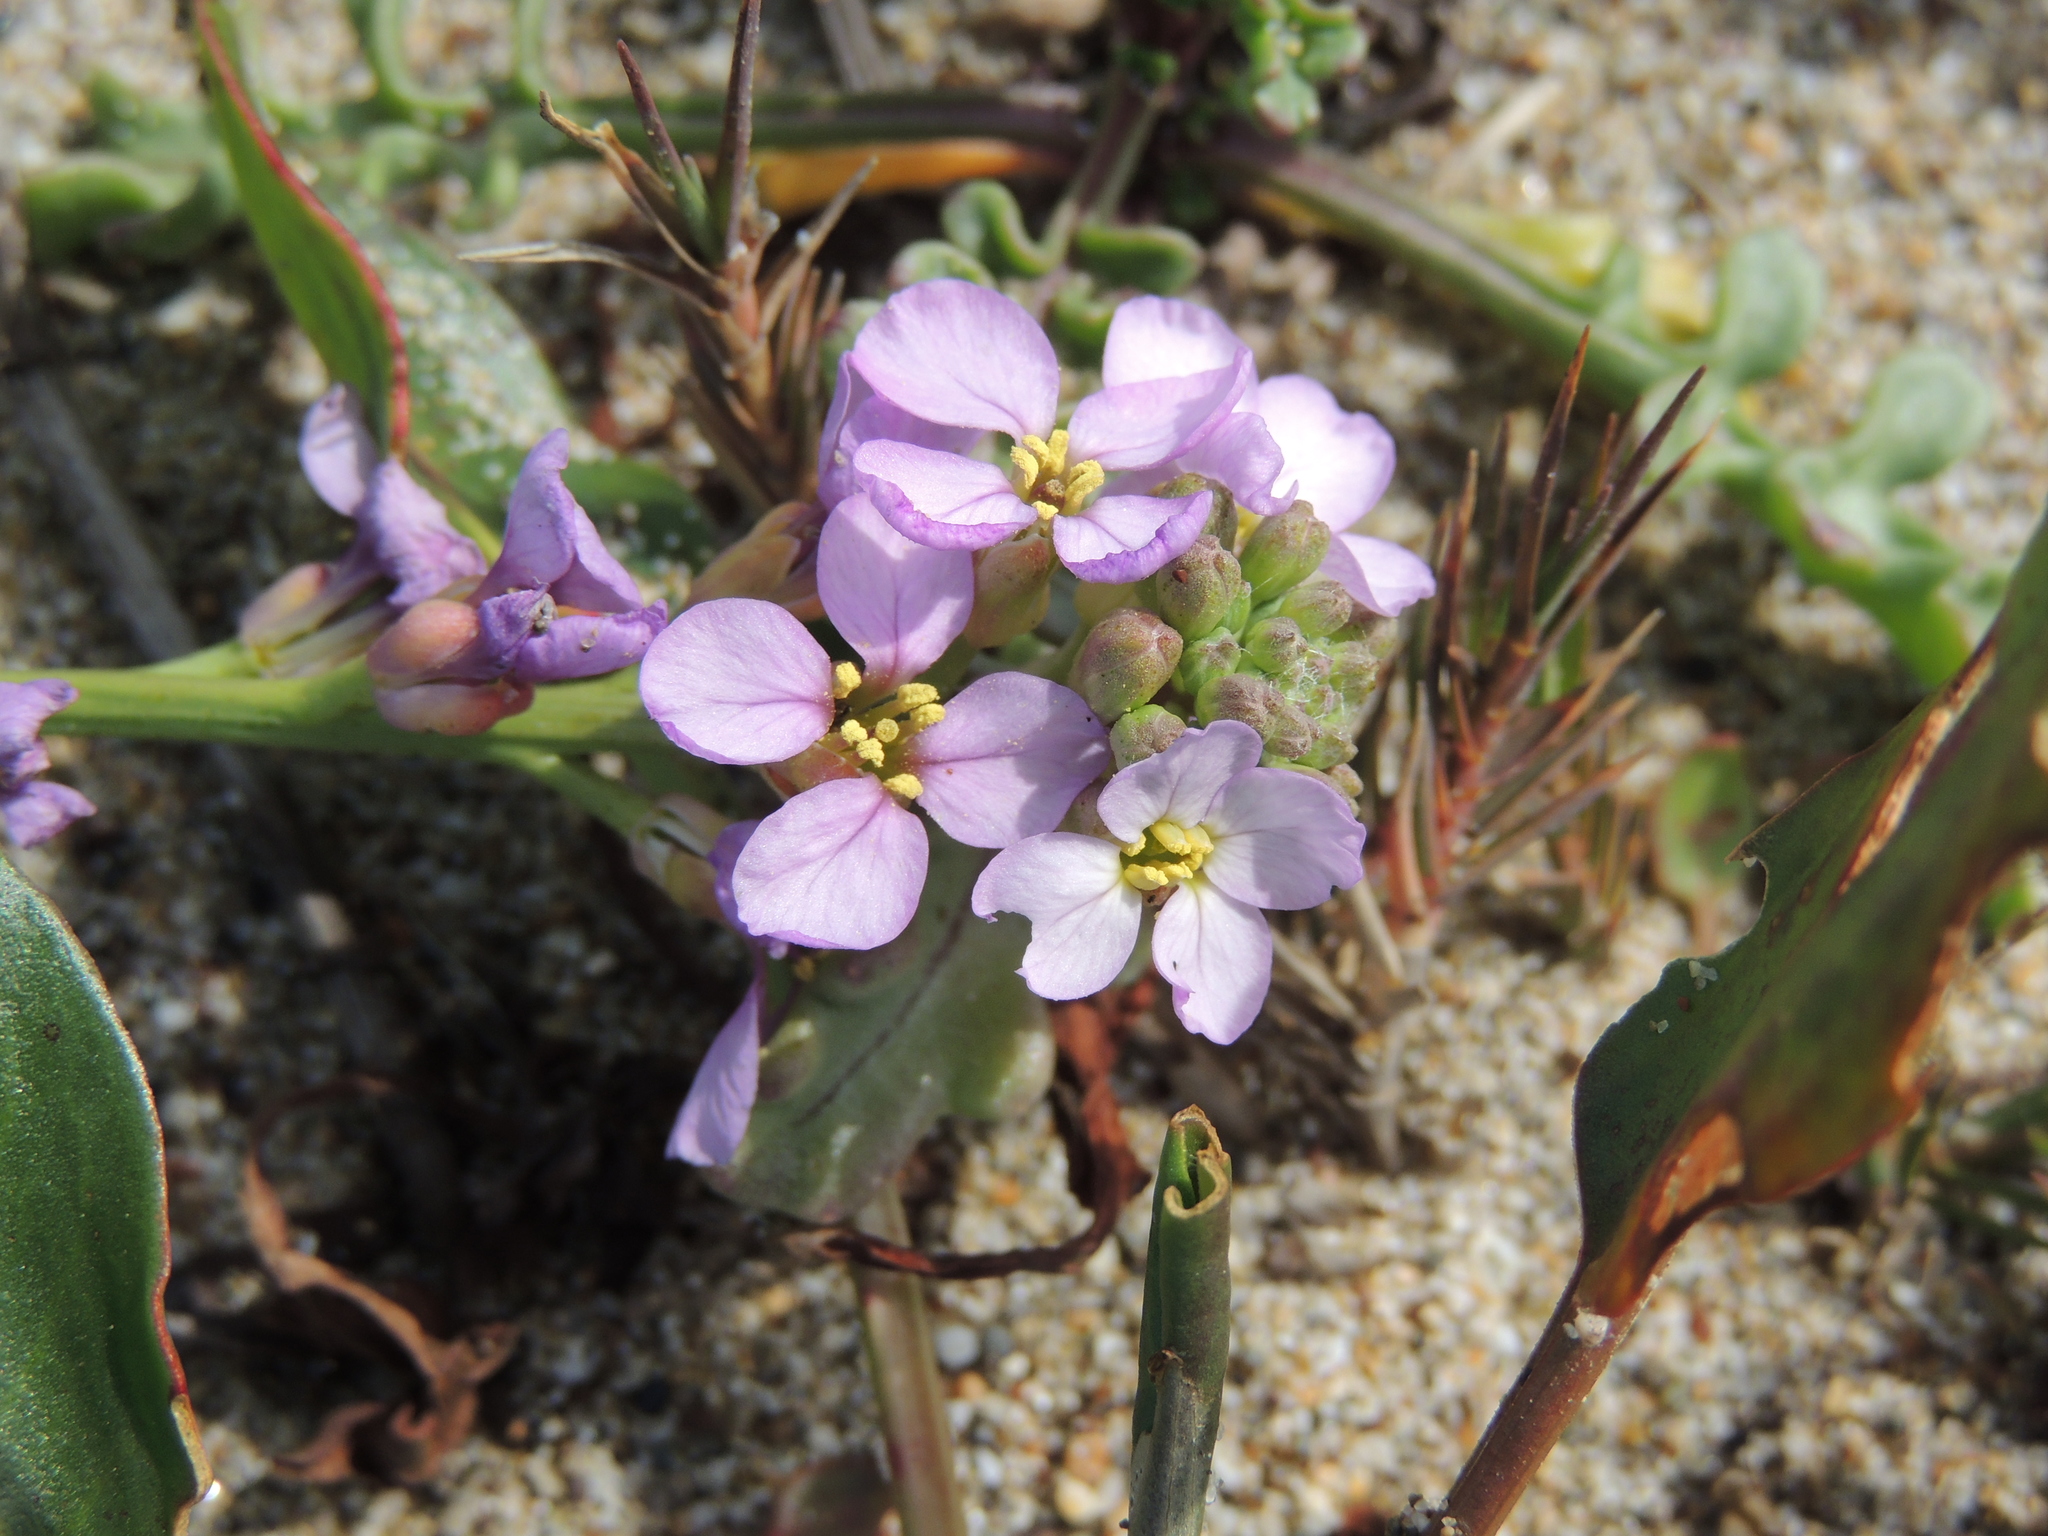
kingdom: Plantae
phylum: Tracheophyta
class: Magnoliopsida
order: Brassicales
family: Brassicaceae
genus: Cakile
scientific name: Cakile maritima
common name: Sea rocket
